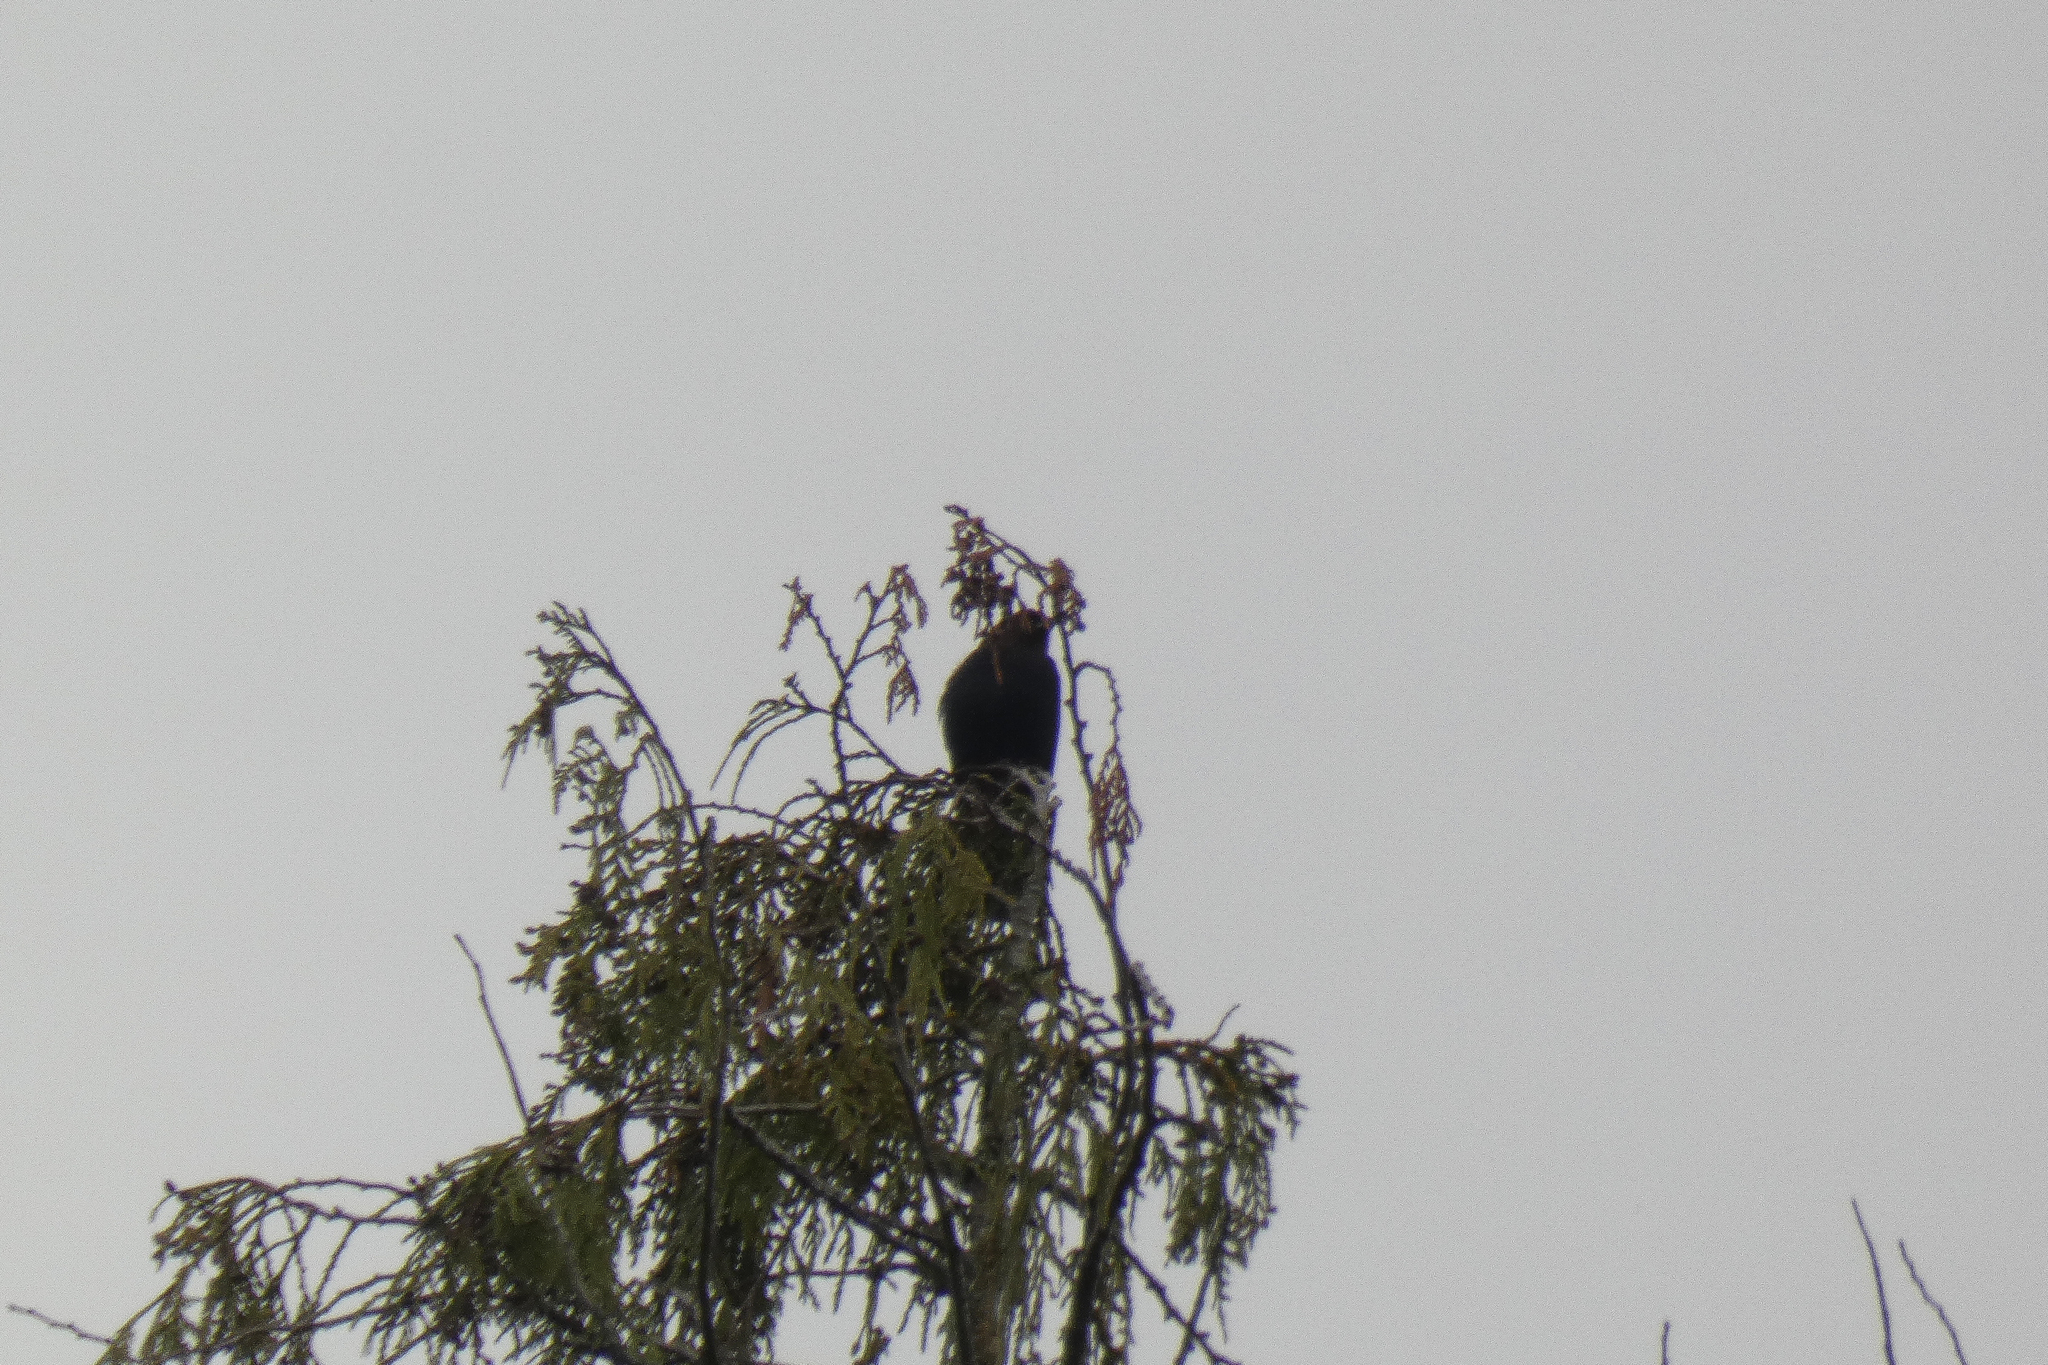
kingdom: Animalia
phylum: Chordata
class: Aves
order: Passeriformes
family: Icteridae
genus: Molothrus
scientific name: Molothrus ater
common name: Brown-headed cowbird
